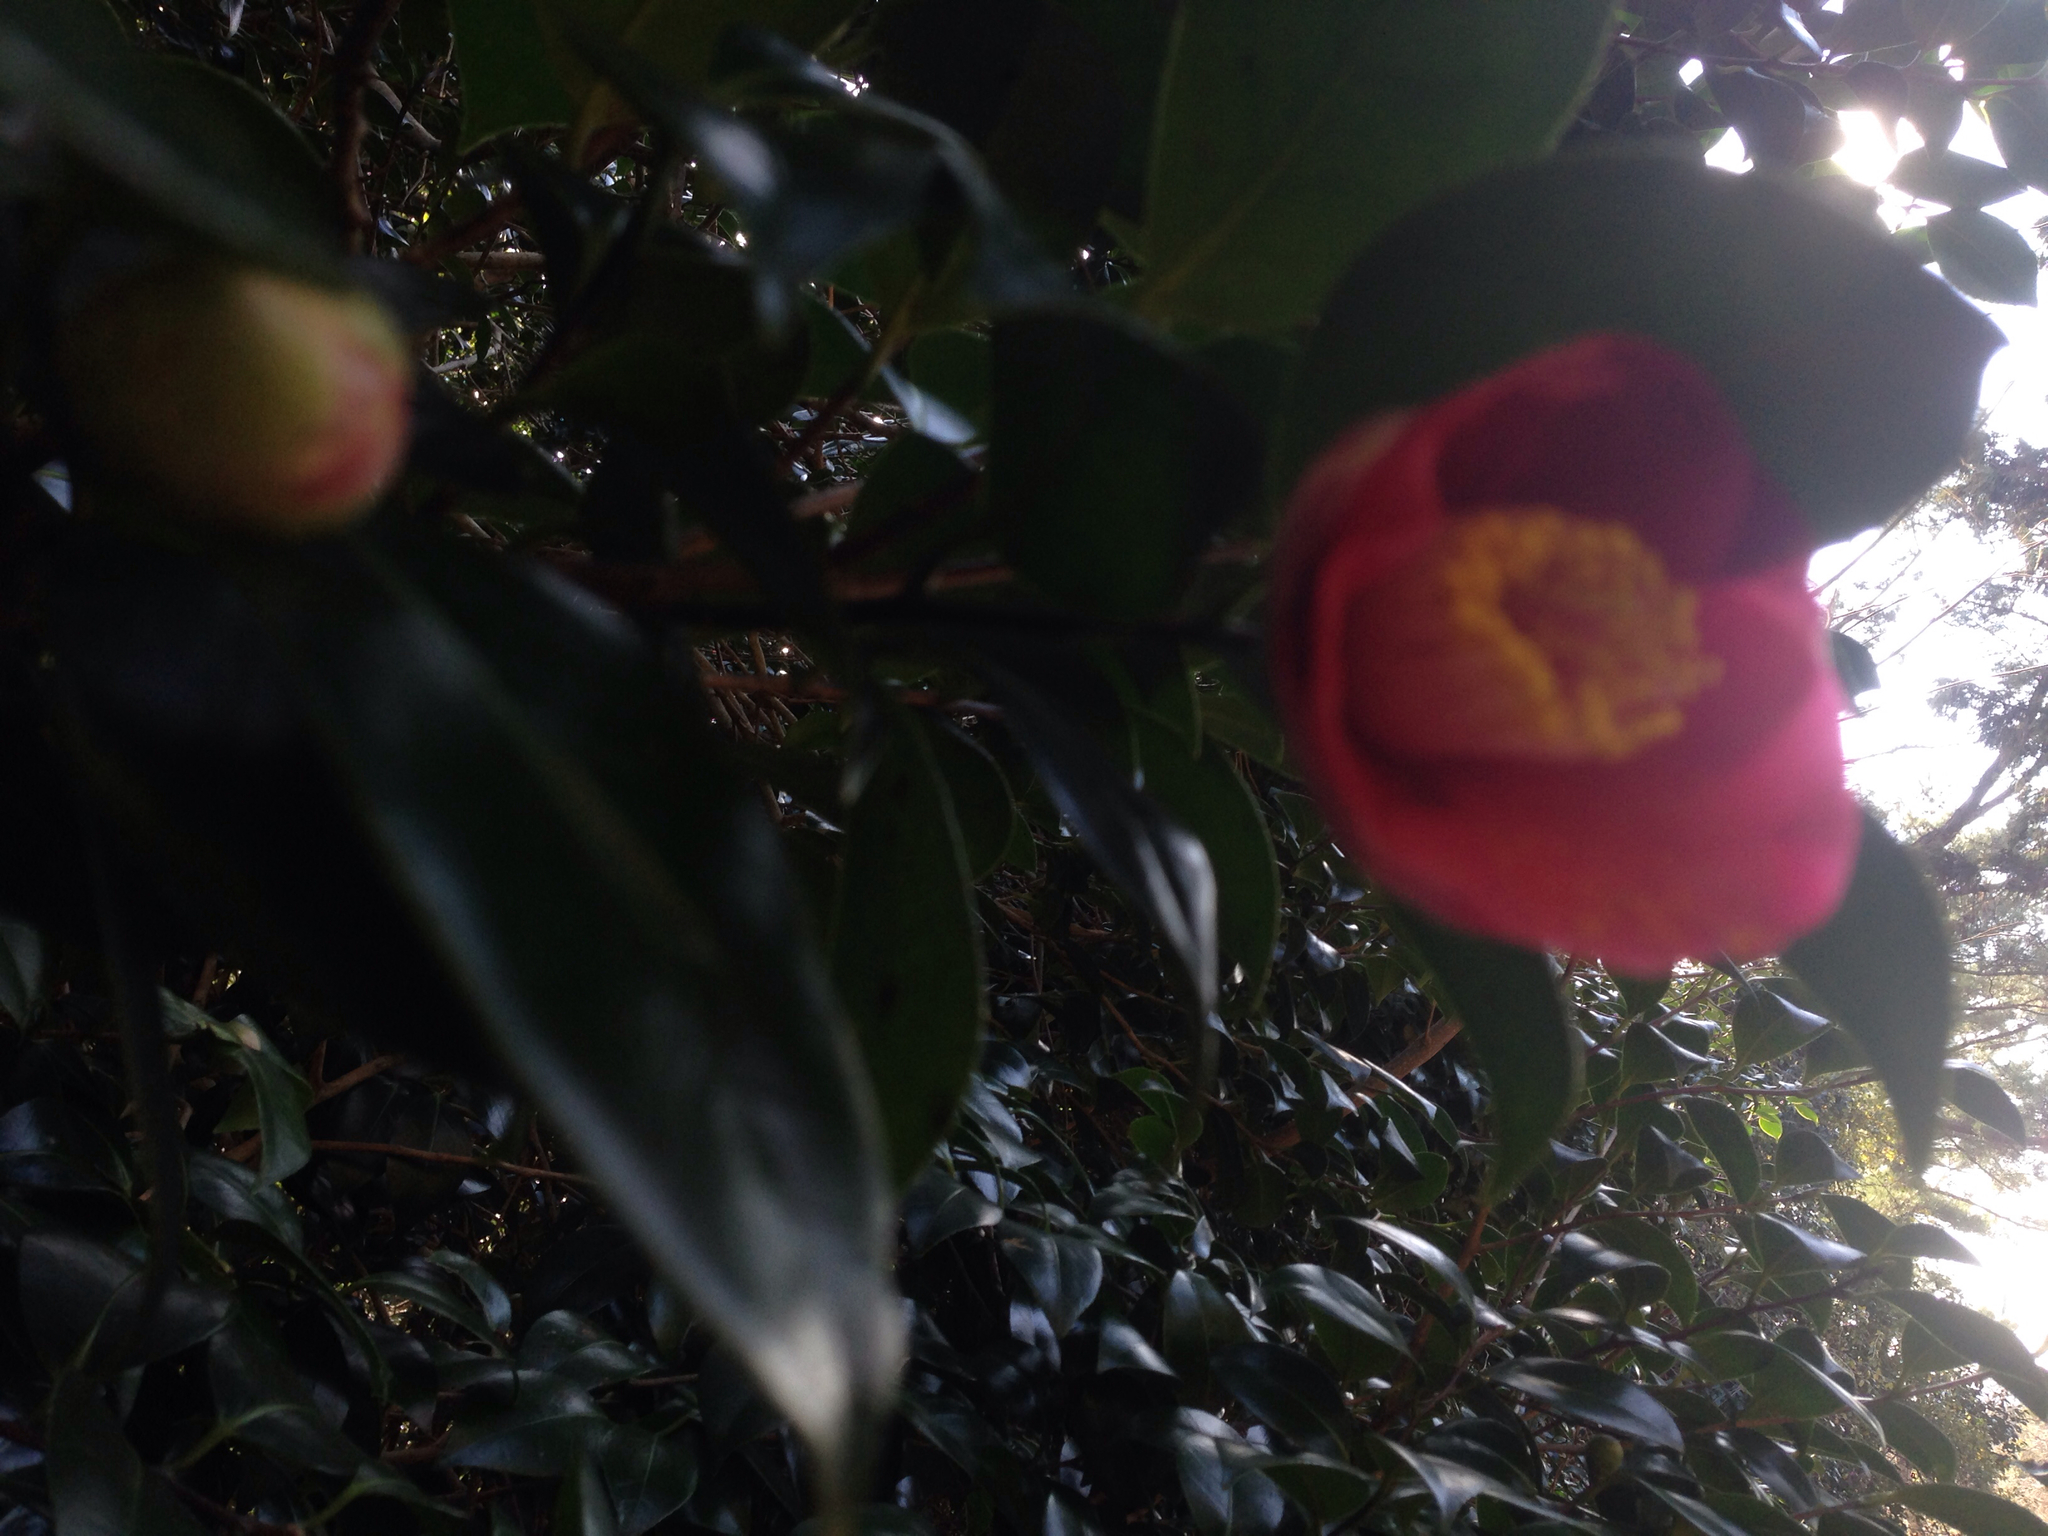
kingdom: Plantae
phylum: Tracheophyta
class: Magnoliopsida
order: Ericales
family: Theaceae
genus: Camellia
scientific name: Camellia japonica
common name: Camellia
